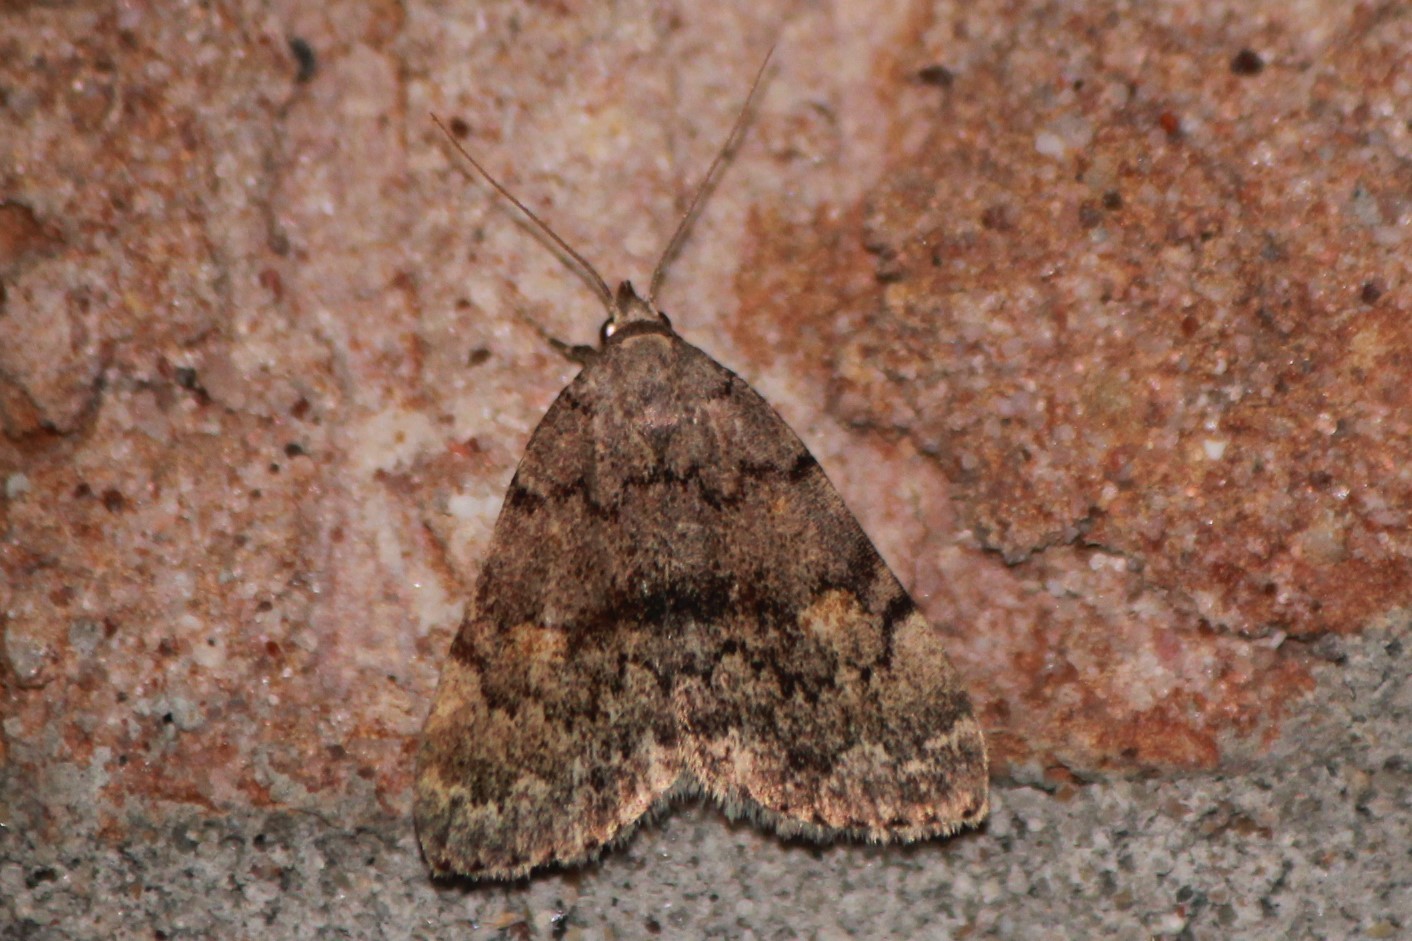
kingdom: Animalia
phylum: Arthropoda
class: Insecta
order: Lepidoptera
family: Erebidae
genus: Idia
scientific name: Idia aemula
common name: Common idia moth
